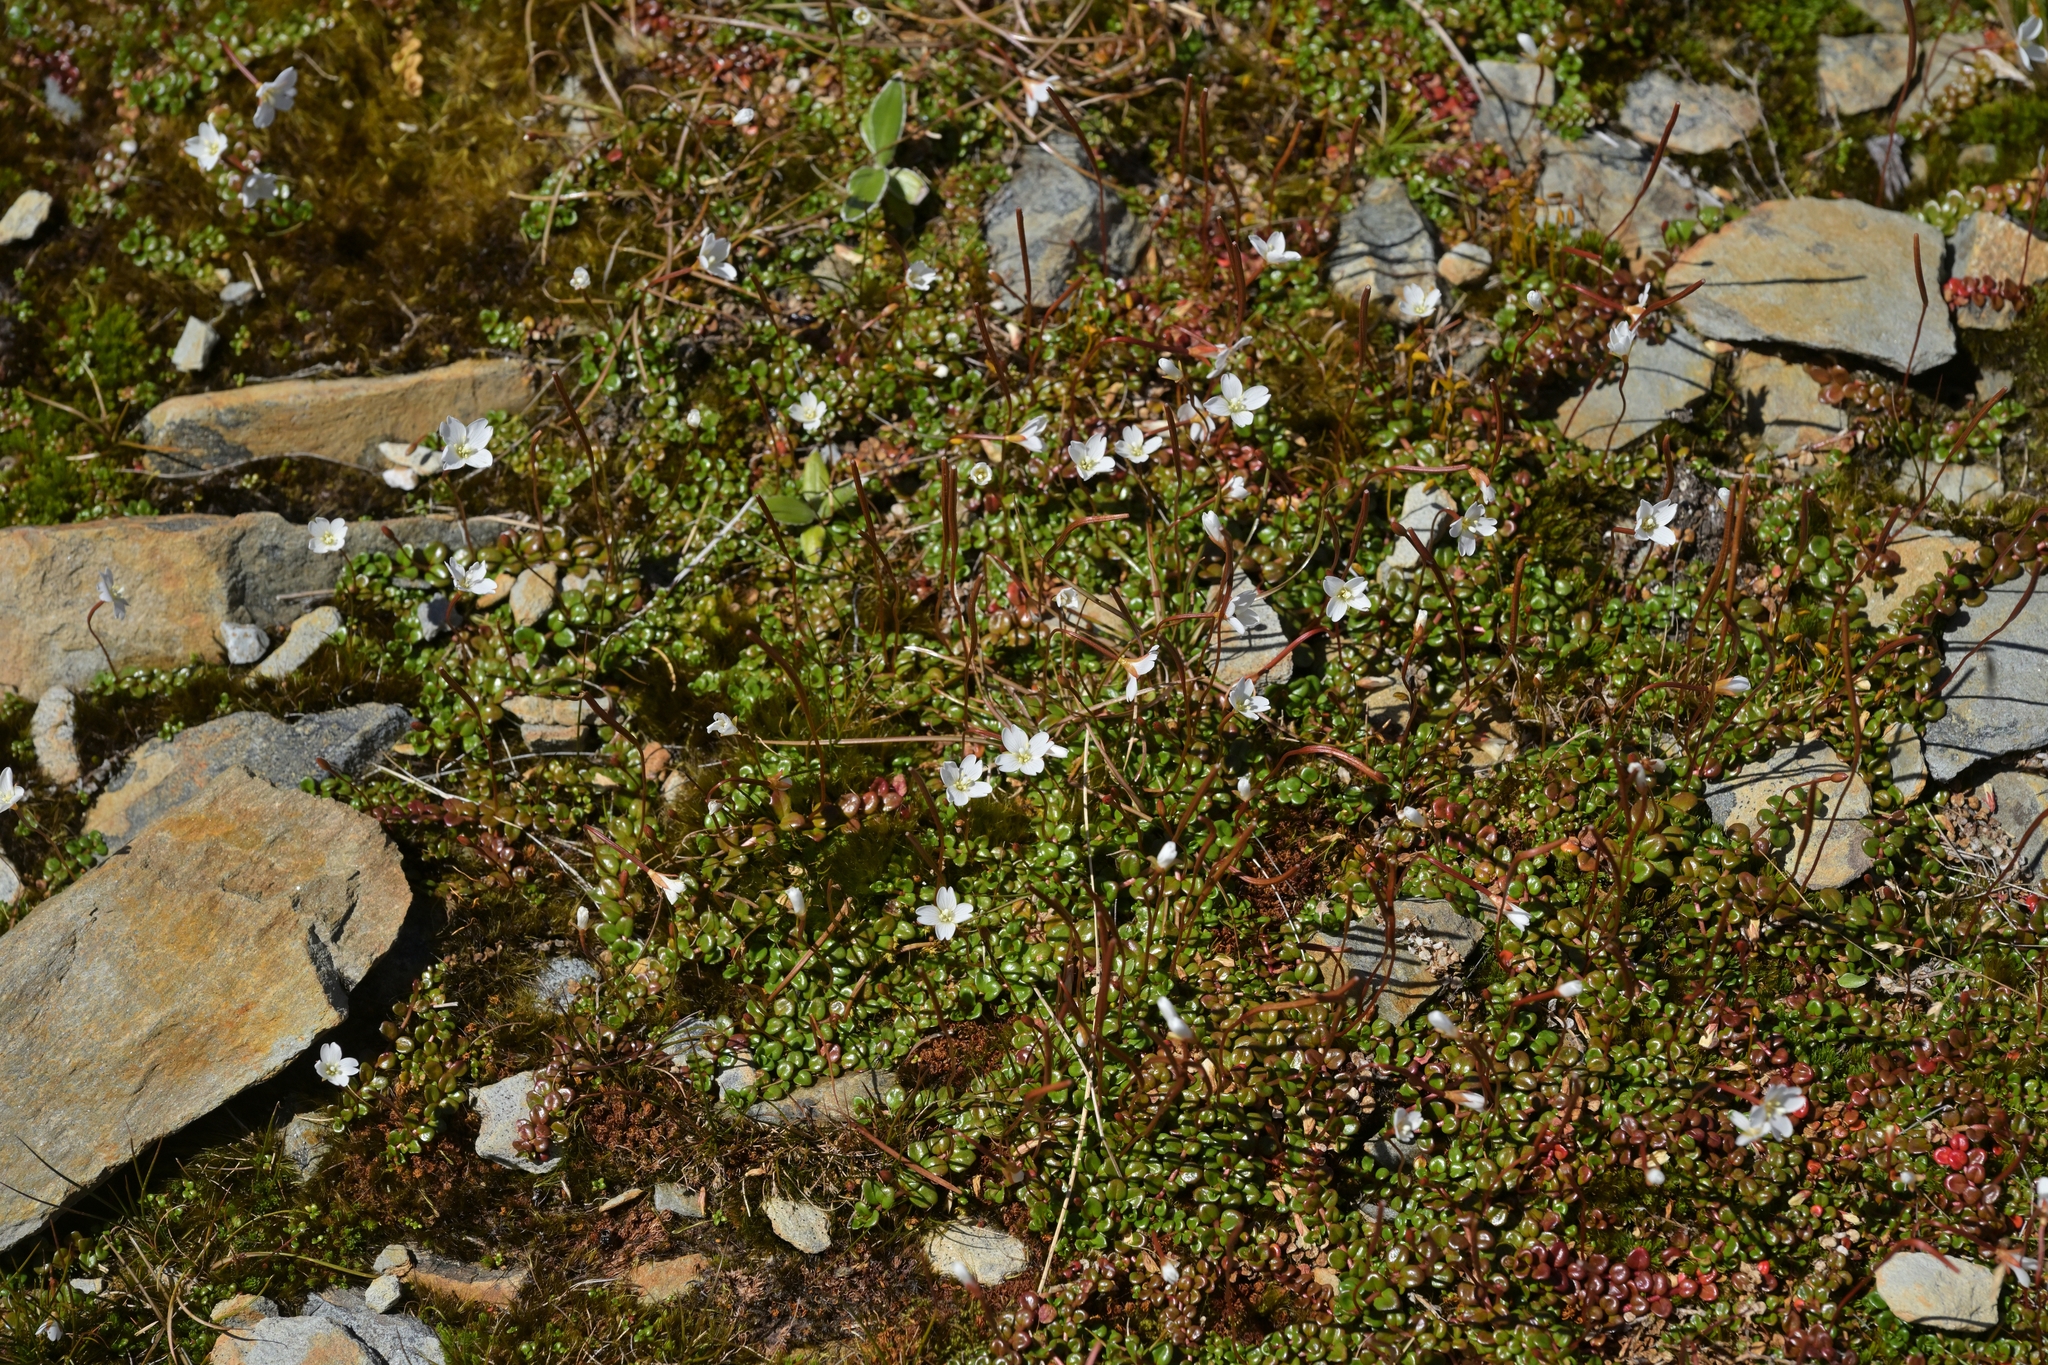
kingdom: Plantae
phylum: Tracheophyta
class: Magnoliopsida
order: Myrtales
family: Onagraceae
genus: Epilobium
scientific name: Epilobium pernitens
